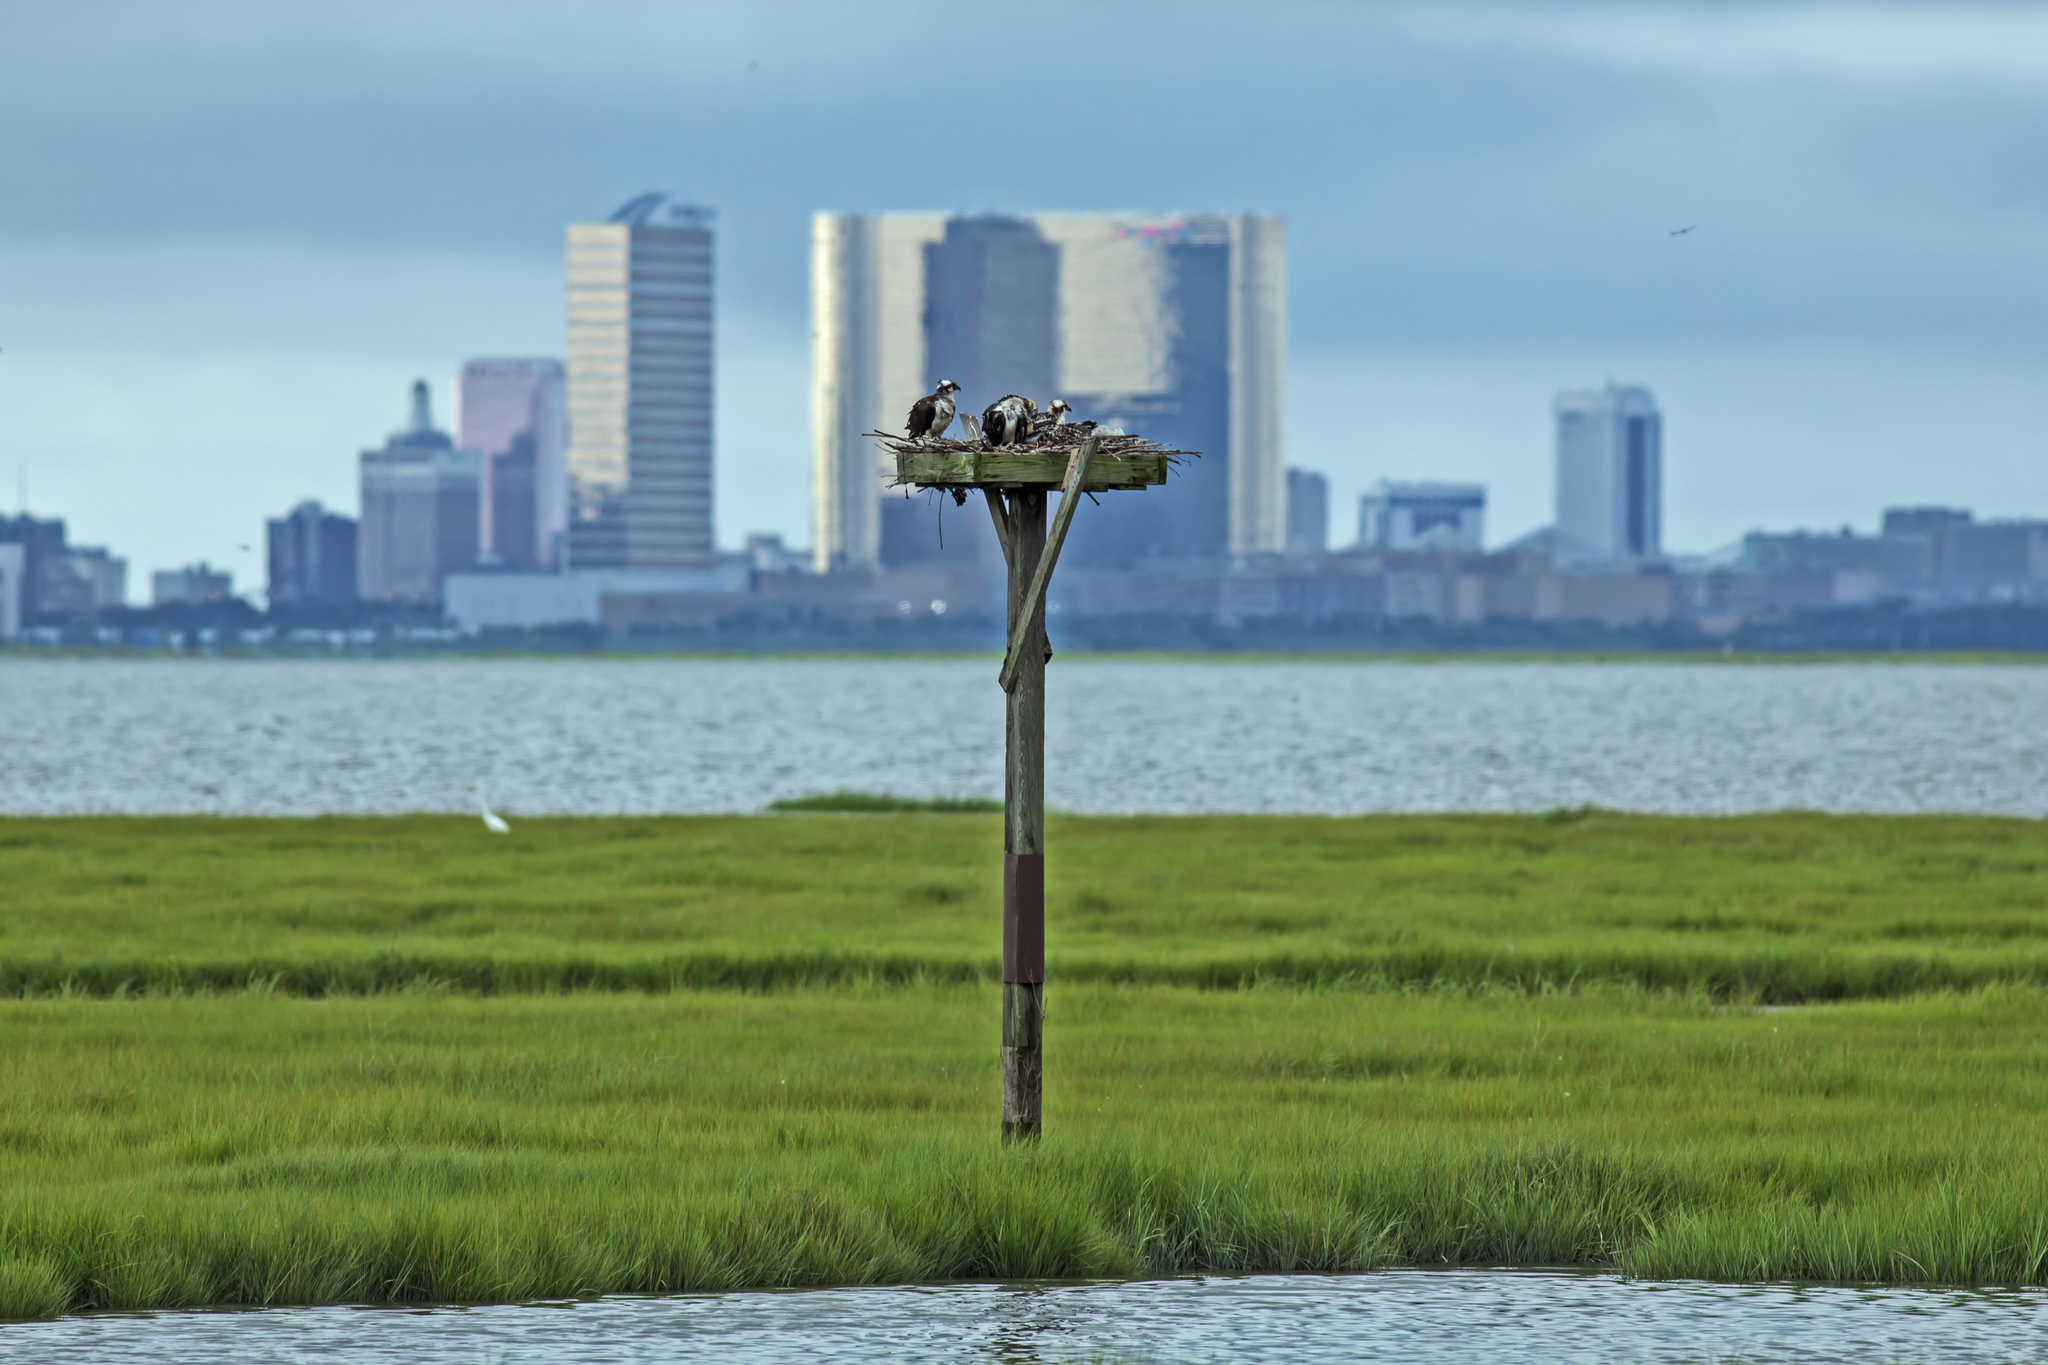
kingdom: Animalia
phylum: Chordata
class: Aves
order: Accipitriformes
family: Pandionidae
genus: Pandion
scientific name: Pandion haliaetus
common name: Osprey
